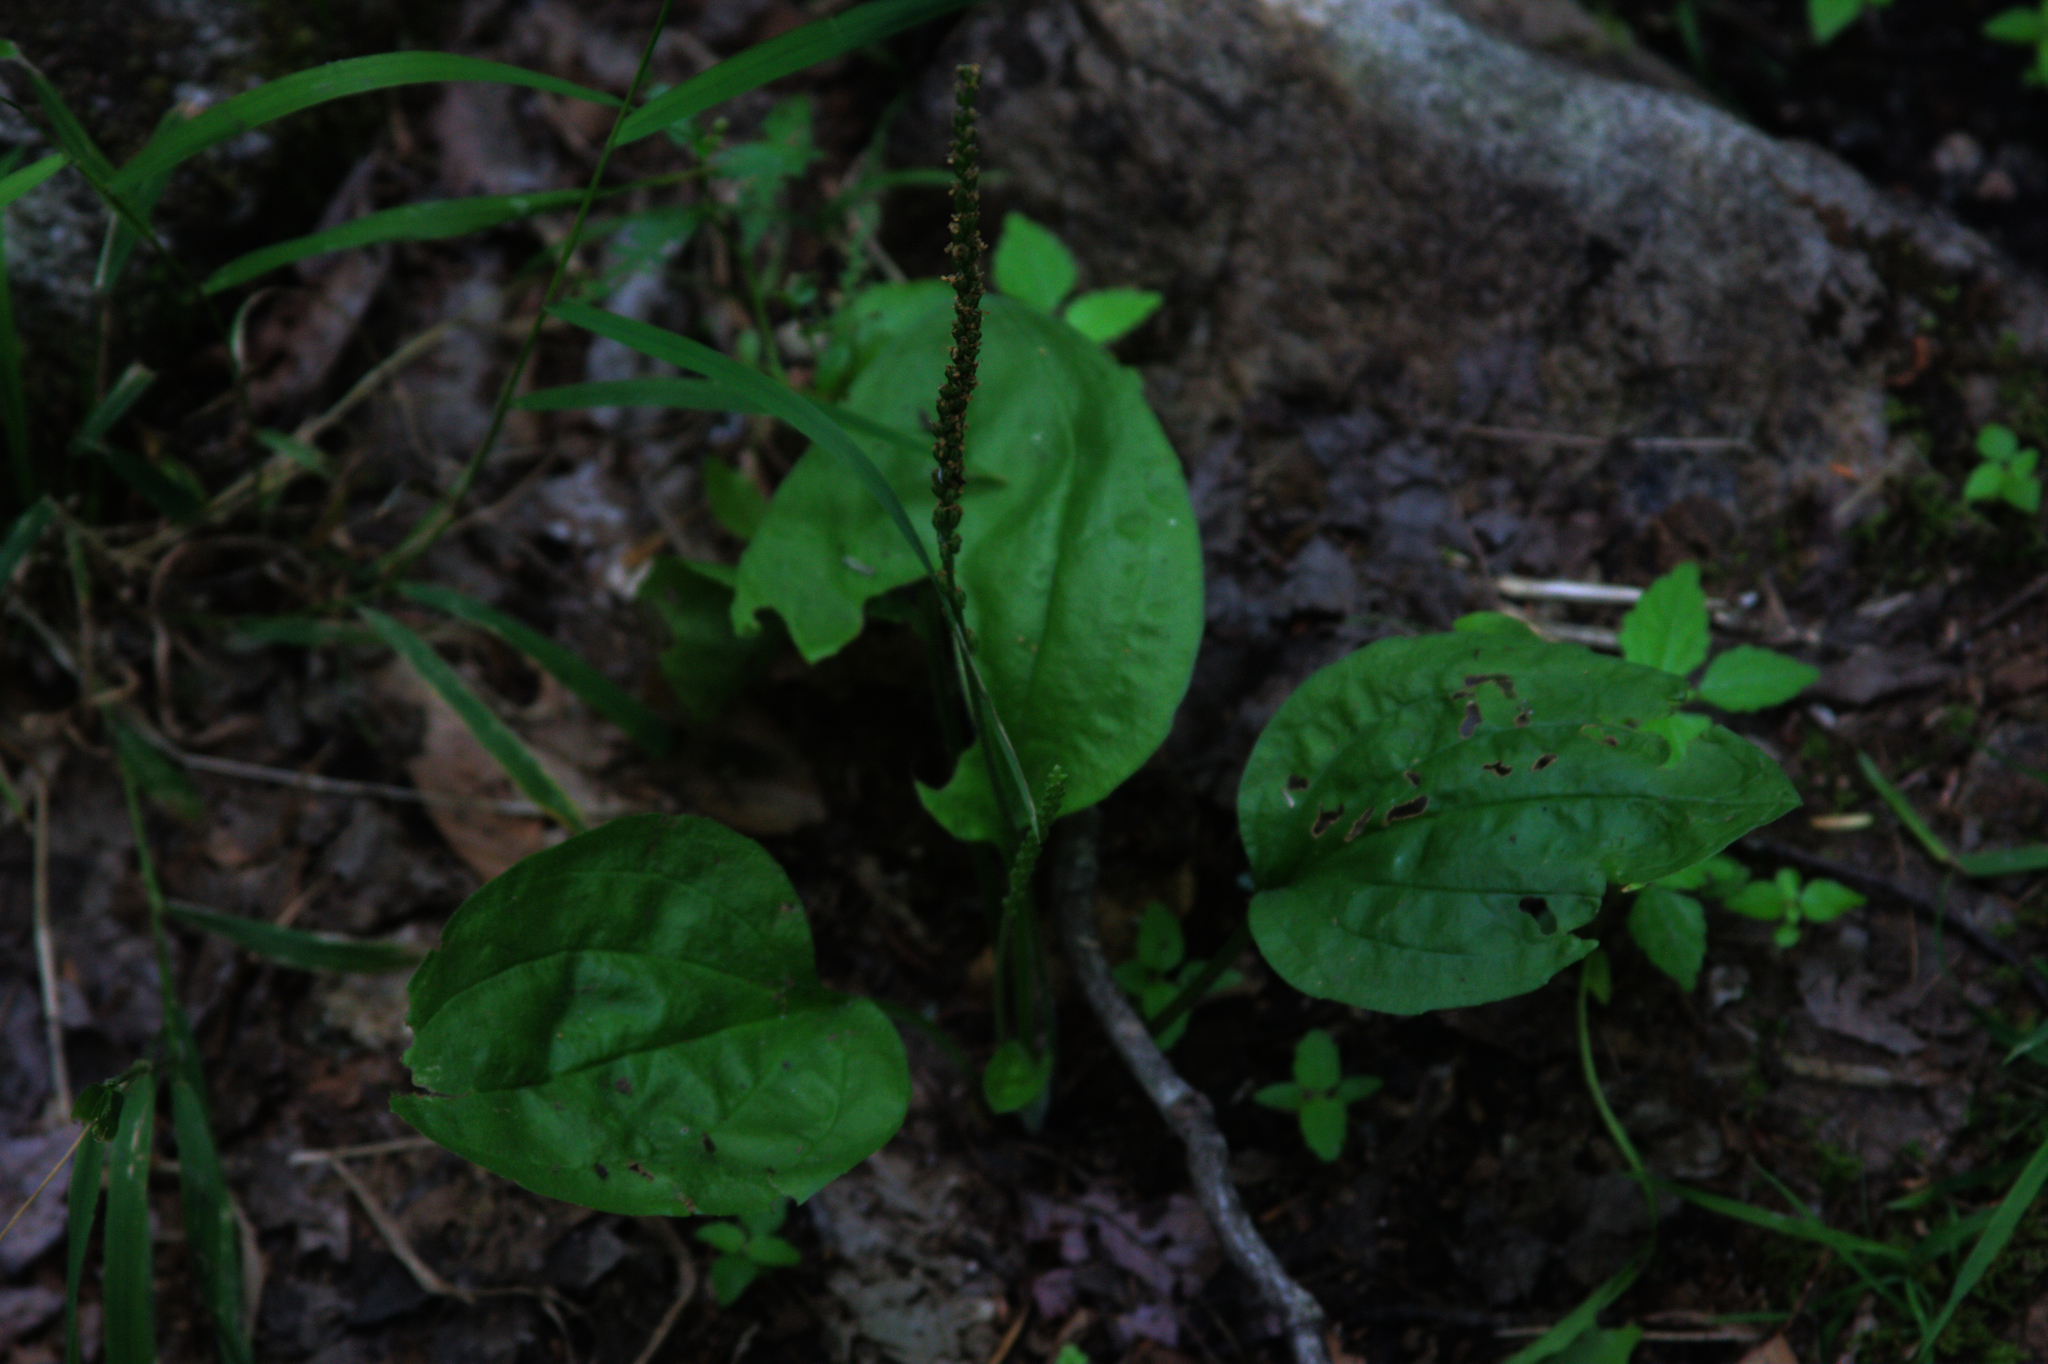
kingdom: Plantae
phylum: Tracheophyta
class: Magnoliopsida
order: Lamiales
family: Plantaginaceae
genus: Plantago
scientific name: Plantago major
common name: Common plantain
